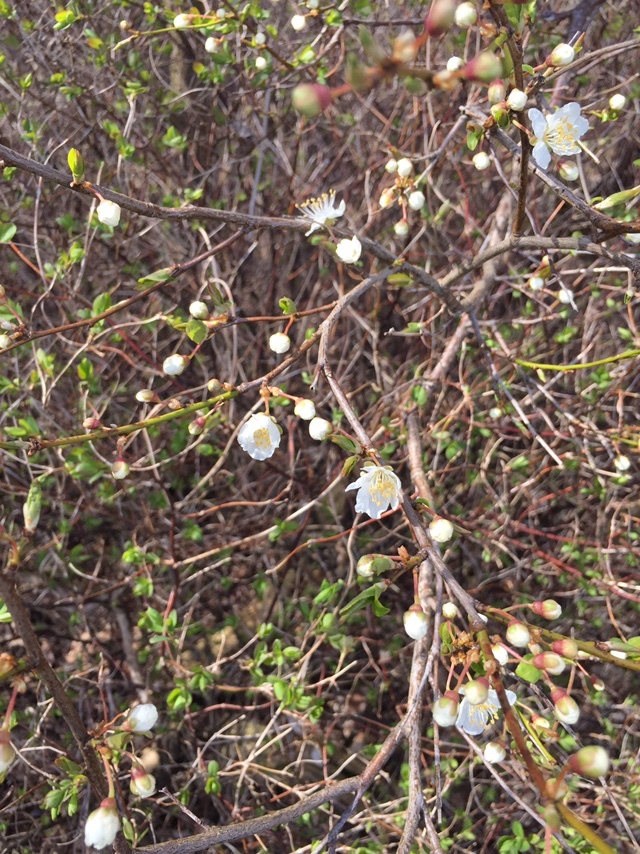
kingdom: Plantae
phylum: Tracheophyta
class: Magnoliopsida
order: Rosales
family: Rosaceae
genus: Prunus
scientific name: Prunus cerasifera
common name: Cherry plum
